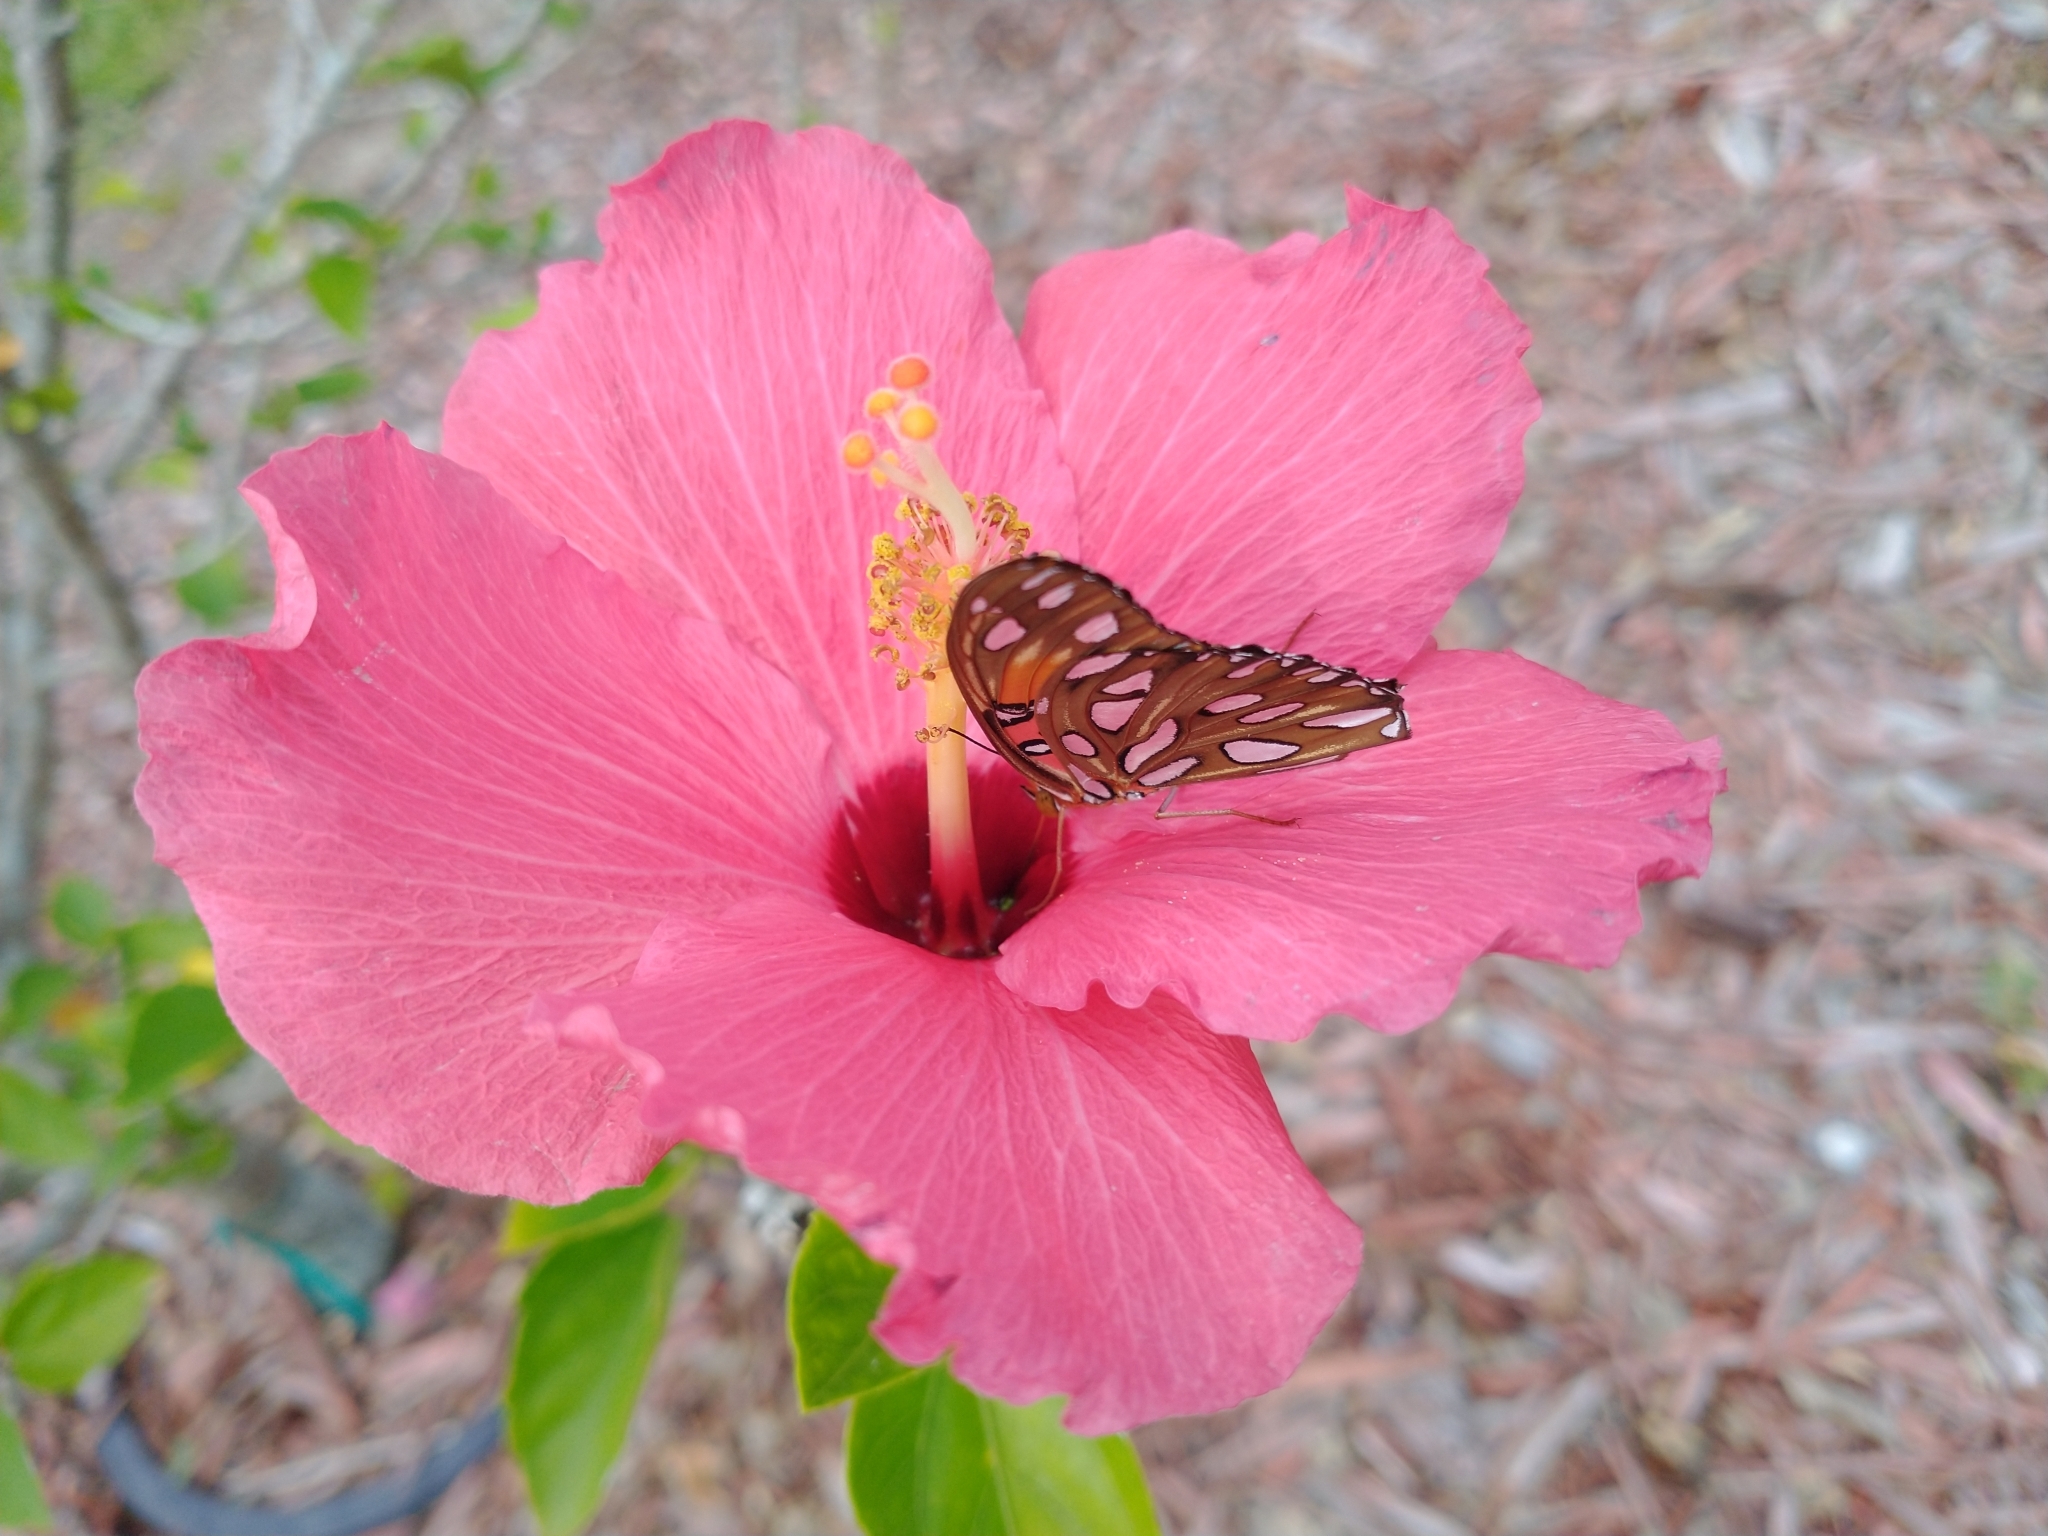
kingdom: Animalia
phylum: Arthropoda
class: Insecta
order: Lepidoptera
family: Nymphalidae
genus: Dione
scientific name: Dione vanillae
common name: Gulf fritillary
